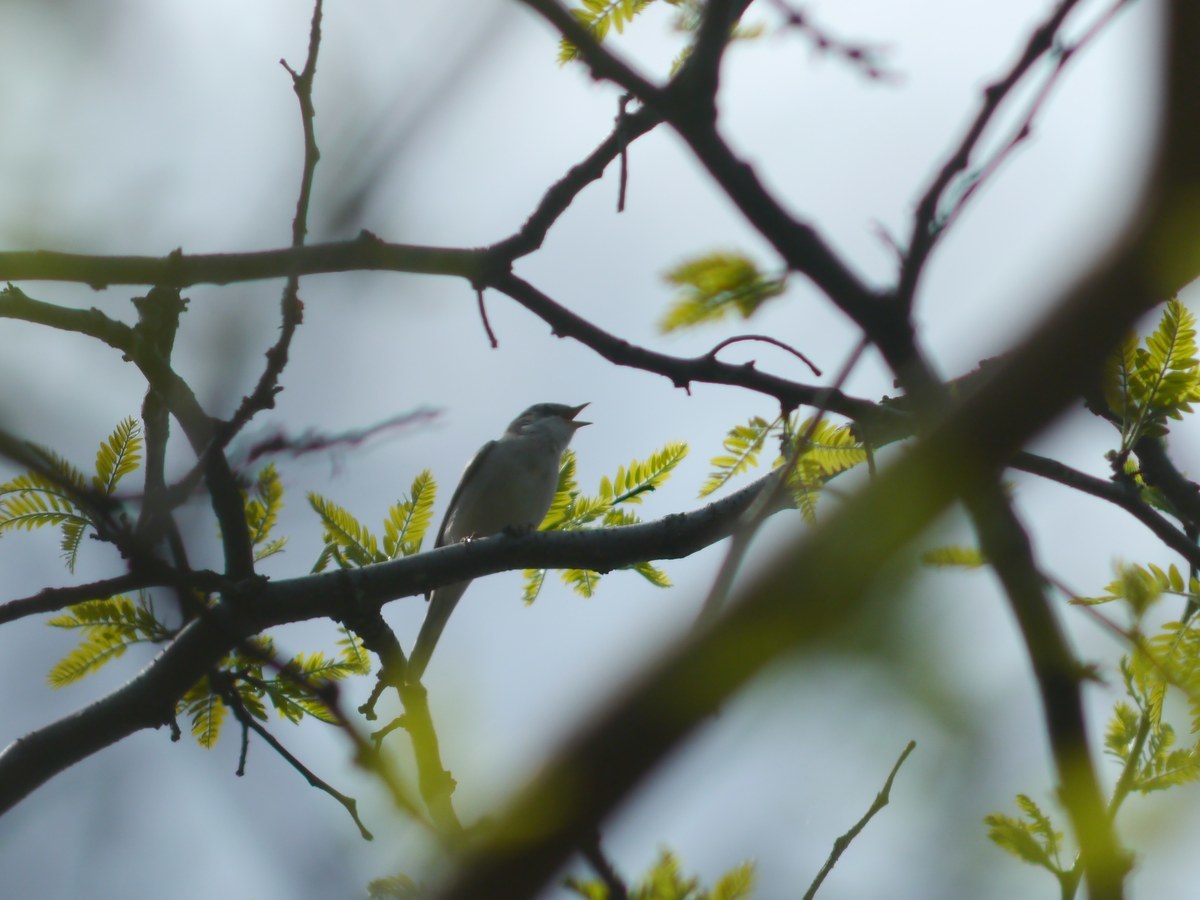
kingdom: Animalia
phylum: Chordata
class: Aves
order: Passeriformes
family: Sylviidae
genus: Sylvia
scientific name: Sylvia communis
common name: Common whitethroat
